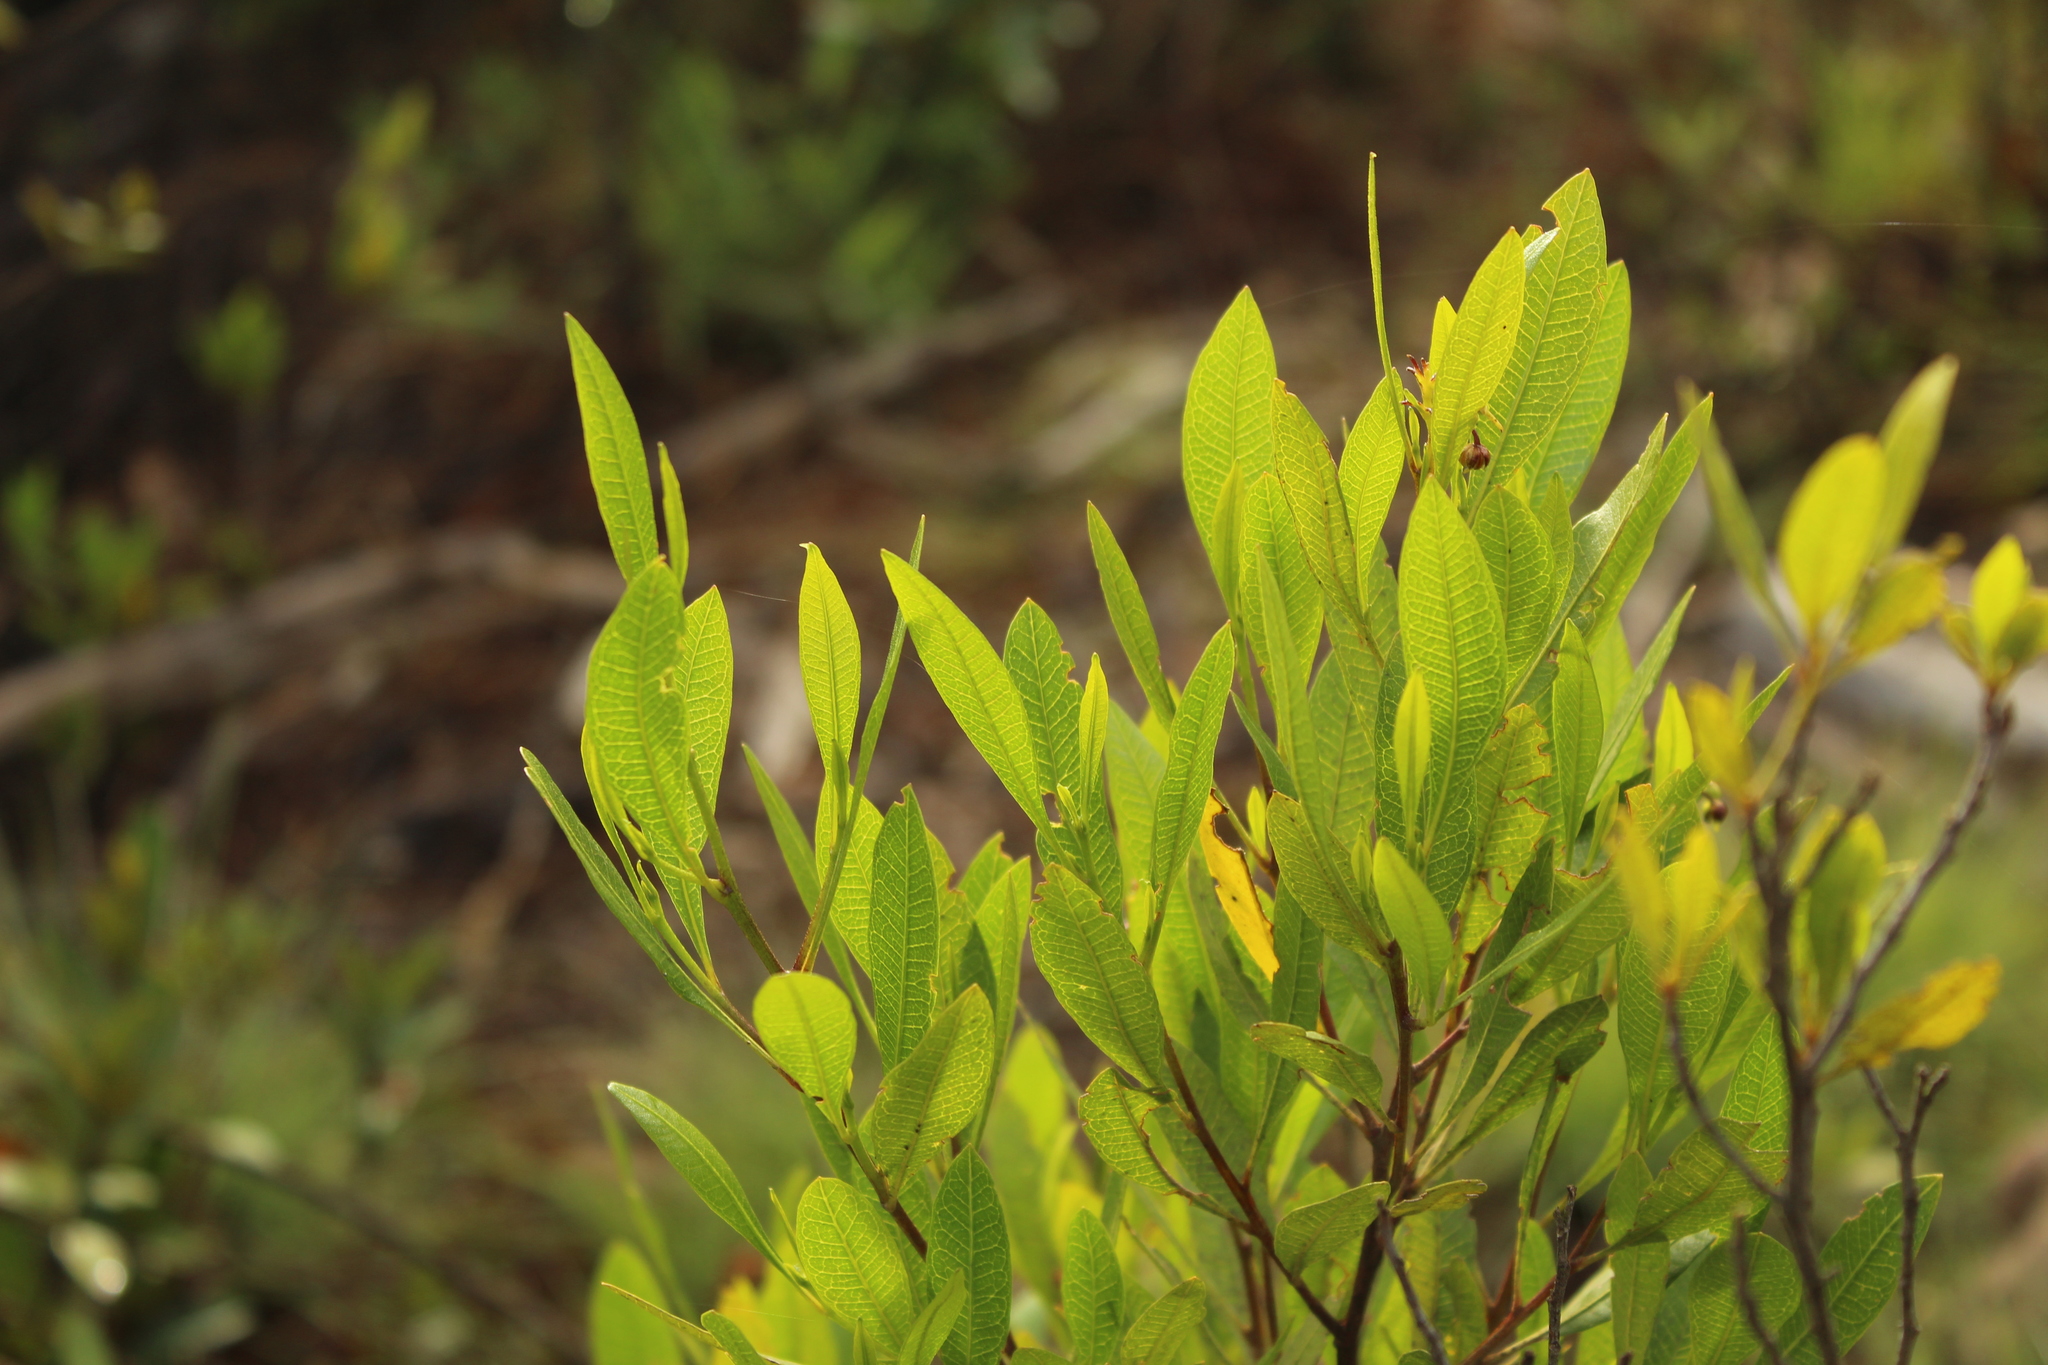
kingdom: Plantae
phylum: Tracheophyta
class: Magnoliopsida
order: Sapindales
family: Sapindaceae
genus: Dodonaea
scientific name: Dodonaea viscosa
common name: Hopbush
